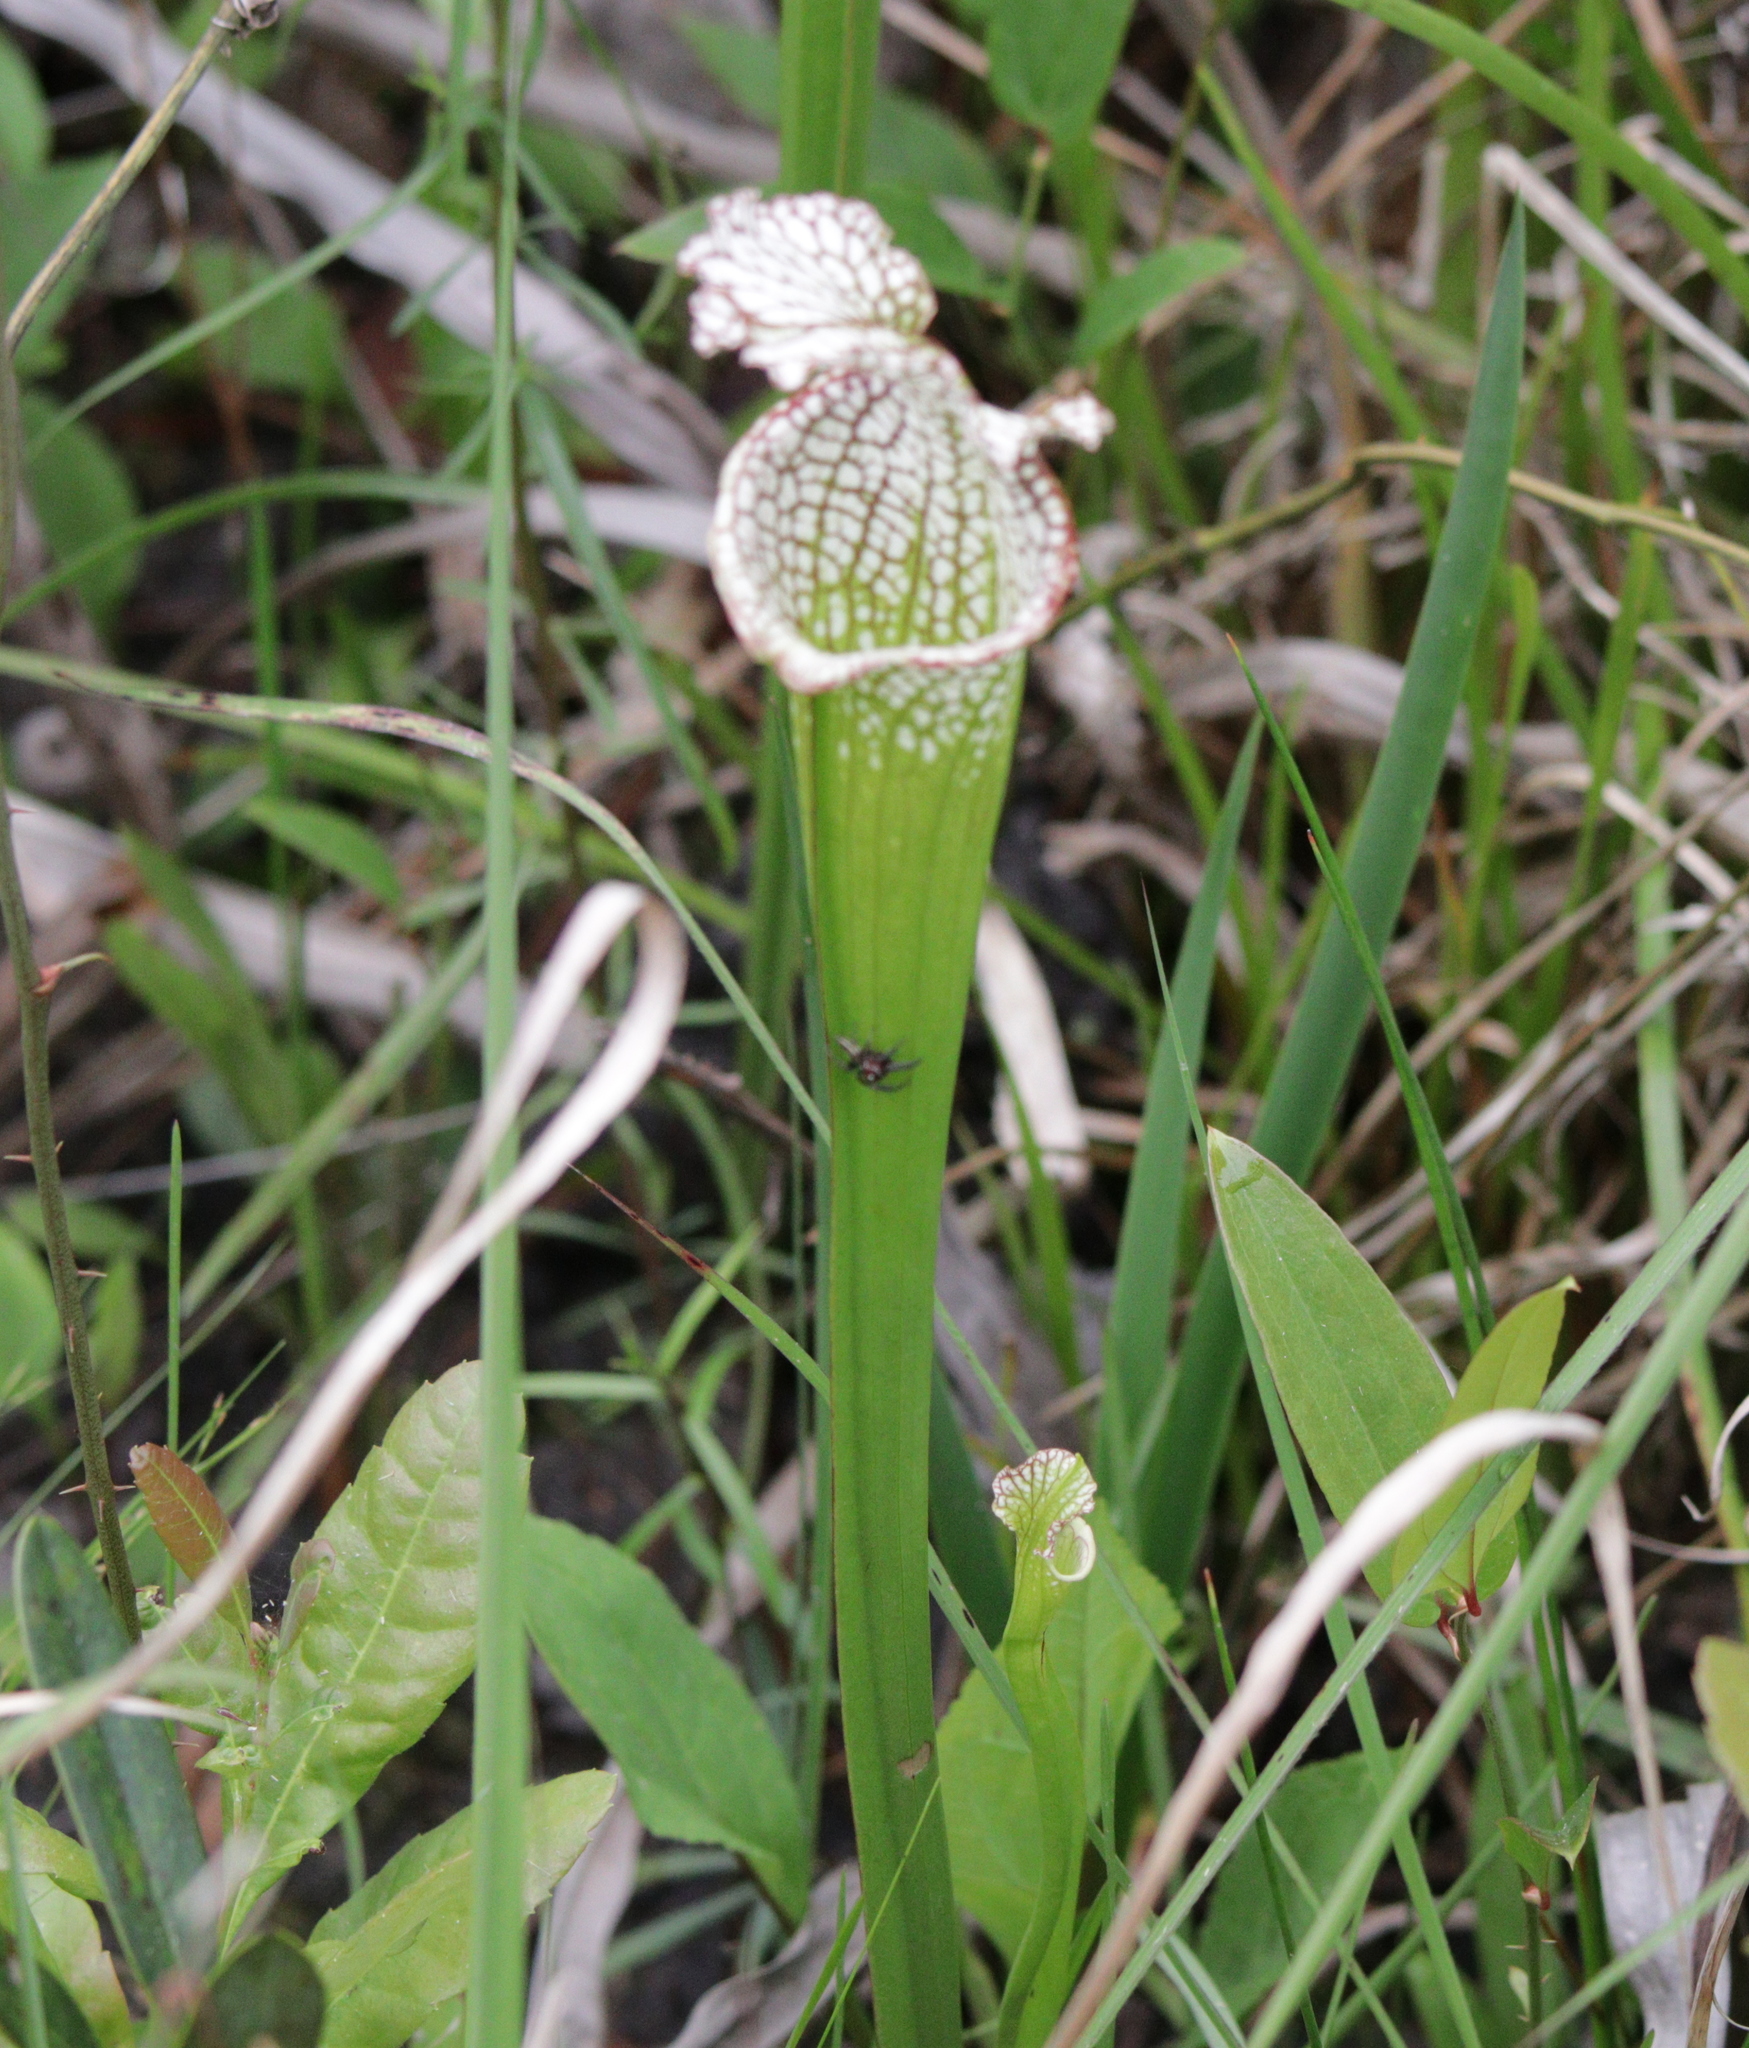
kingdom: Plantae
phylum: Tracheophyta
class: Magnoliopsida
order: Ericales
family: Sarraceniaceae
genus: Sarracenia
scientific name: Sarracenia leucophylla
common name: Purple trumpetleaf
